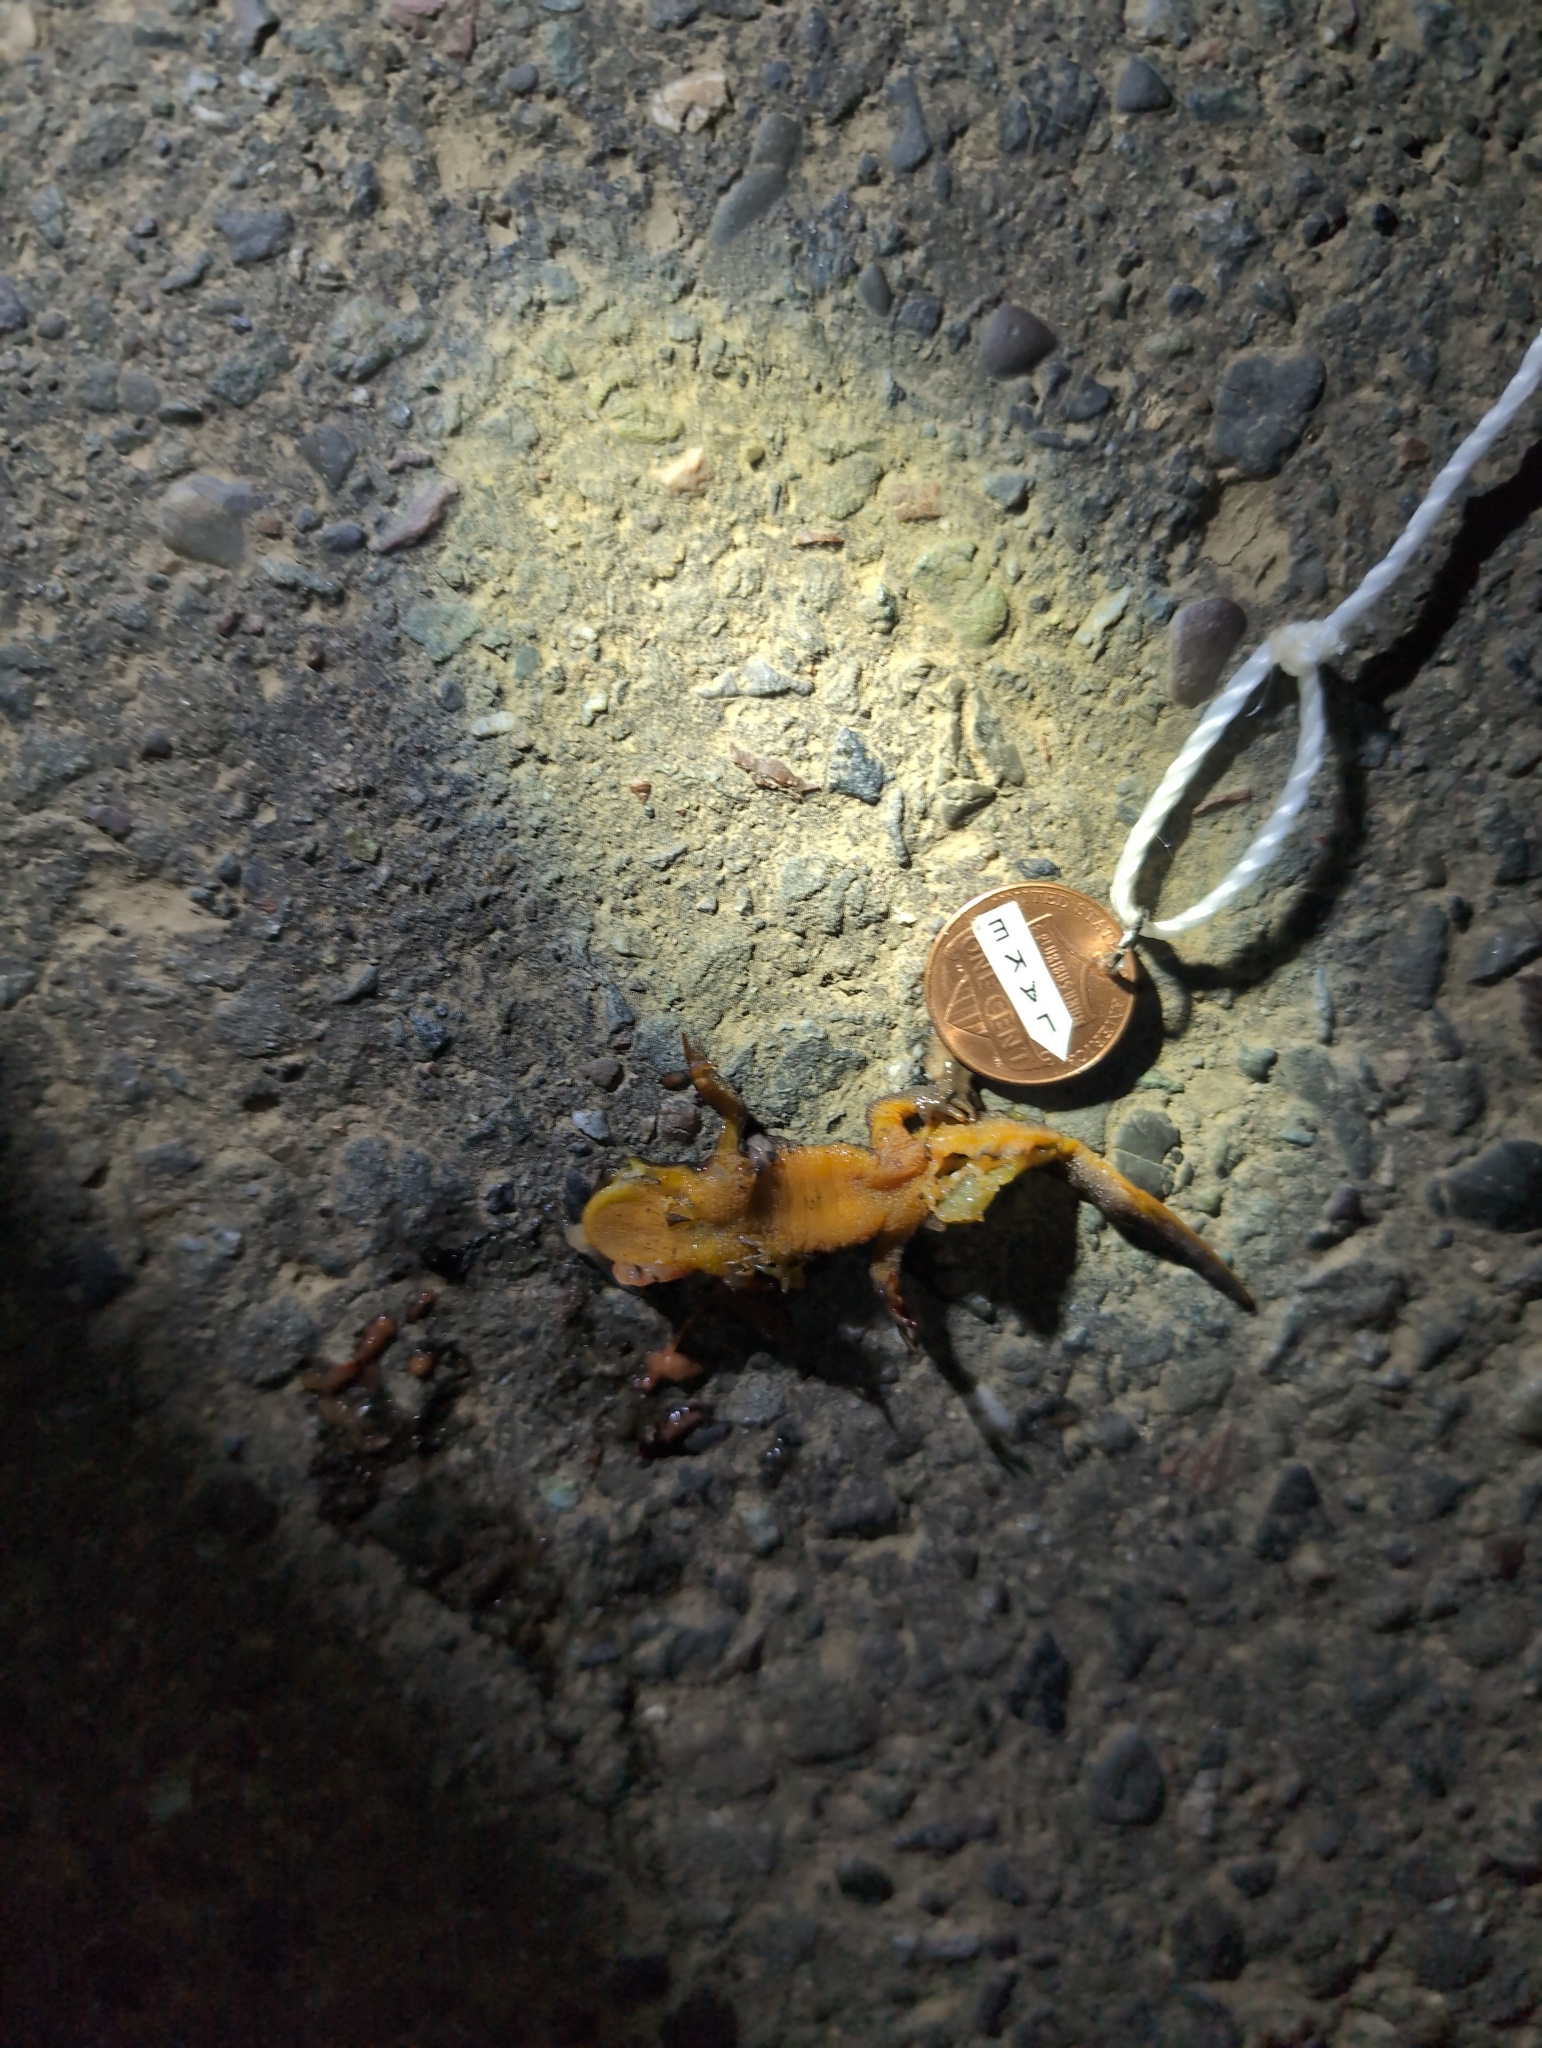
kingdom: Animalia
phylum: Chordata
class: Amphibia
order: Caudata
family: Salamandridae
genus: Taricha
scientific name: Taricha
